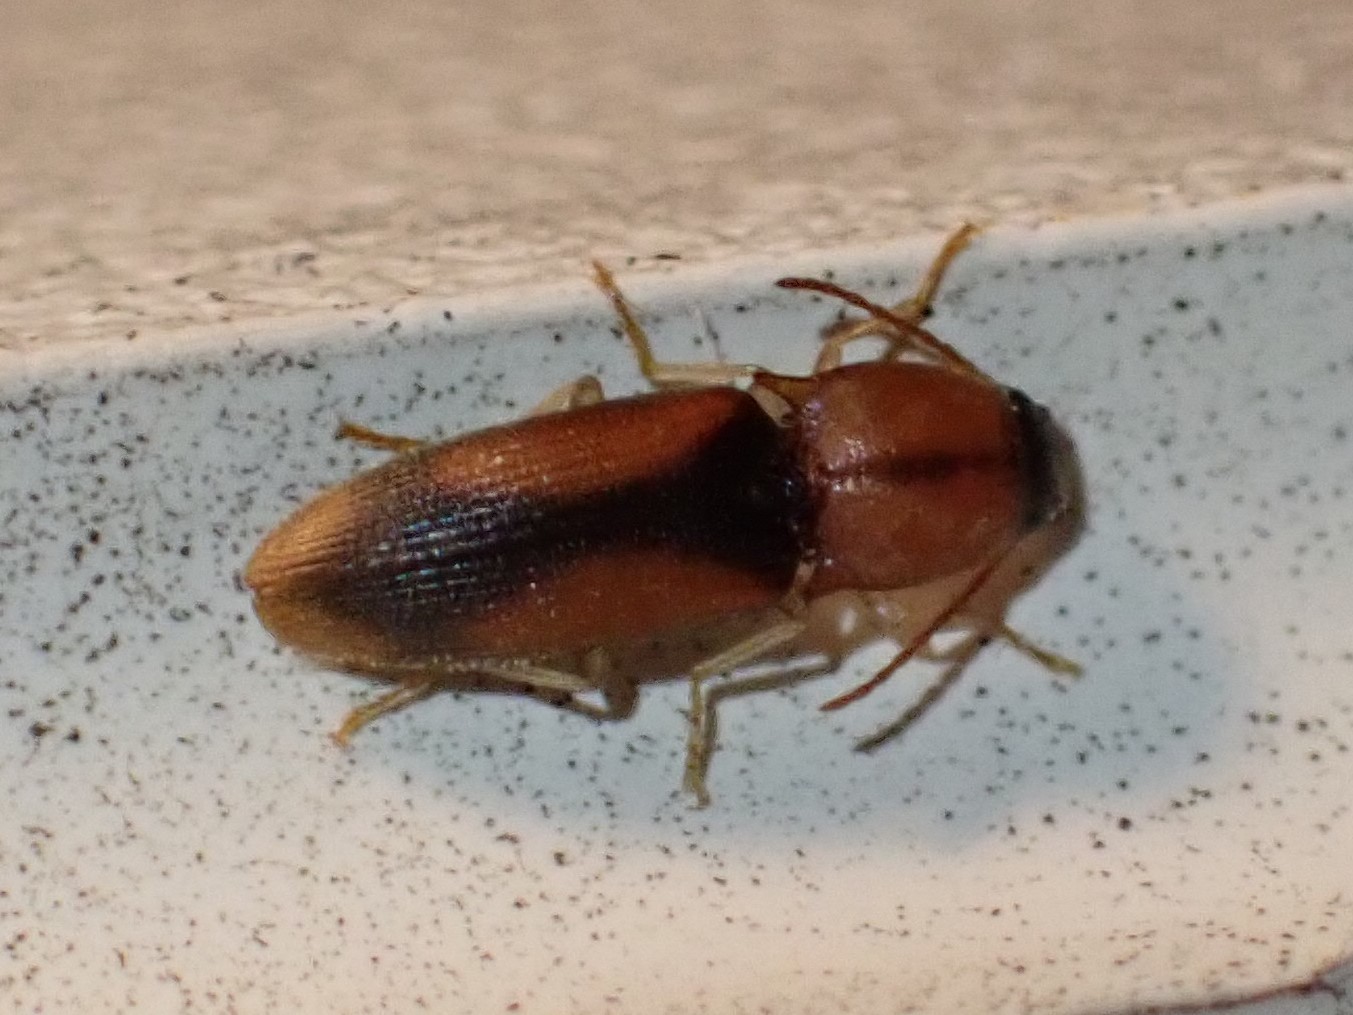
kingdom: Animalia
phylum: Arthropoda
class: Insecta
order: Coleoptera
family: Elateridae
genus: Monocrepidius
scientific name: Monocrepidius
